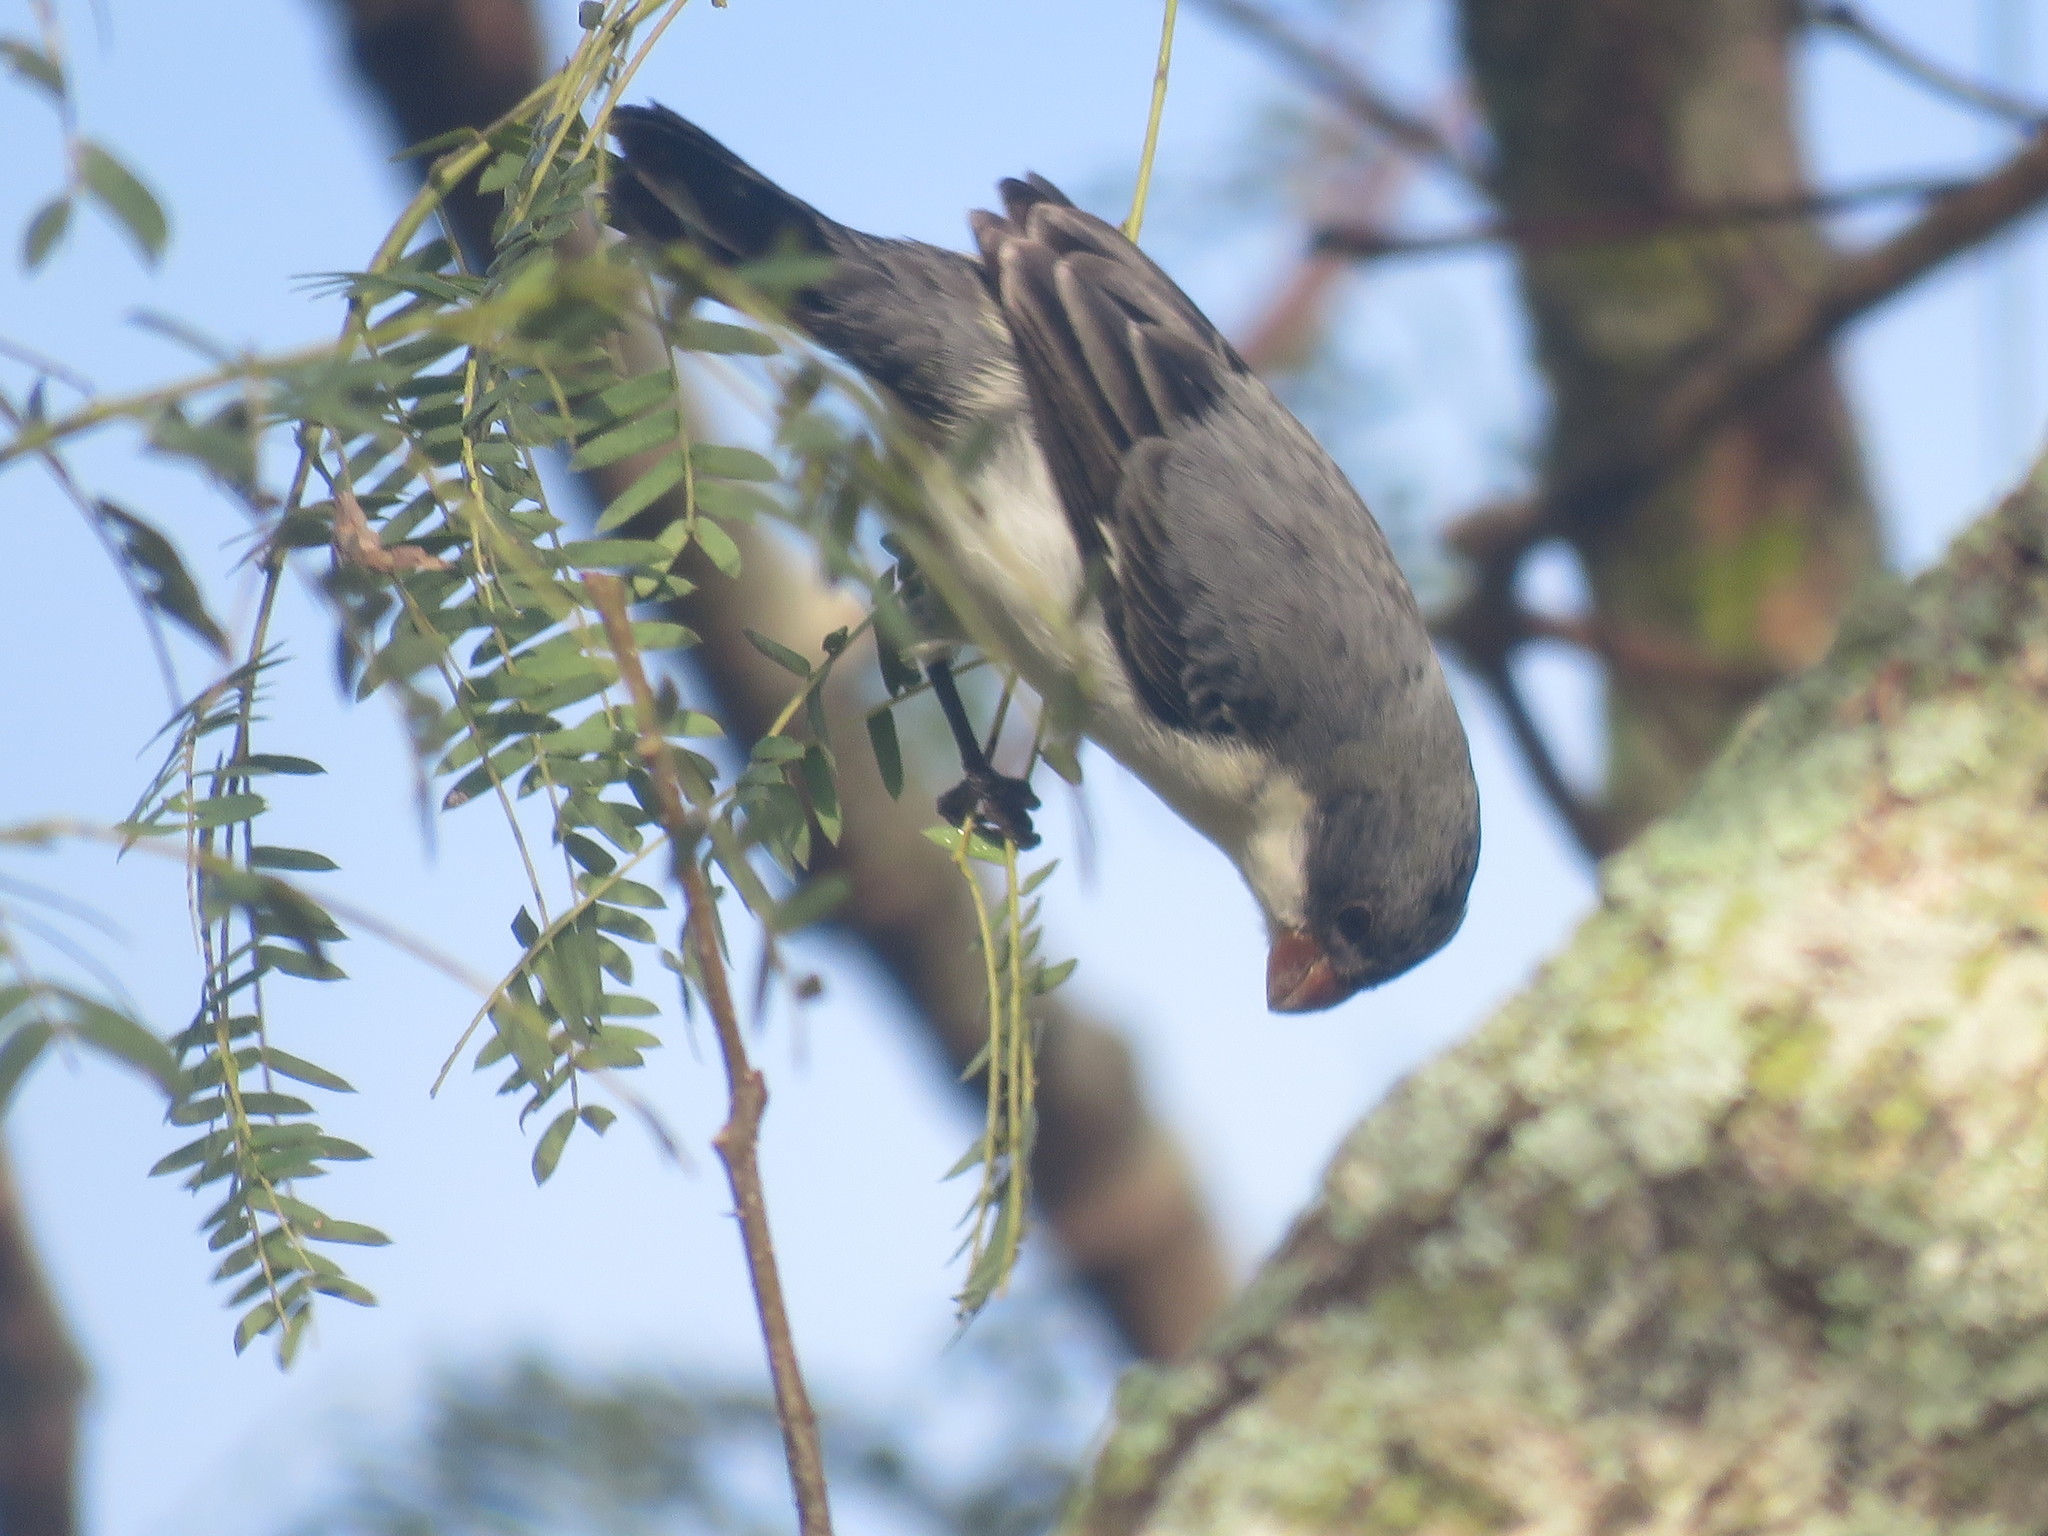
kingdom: Animalia
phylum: Chordata
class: Aves
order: Passeriformes
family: Thraupidae
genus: Sporophila
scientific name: Sporophila leucoptera
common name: White-bellied seedeater
